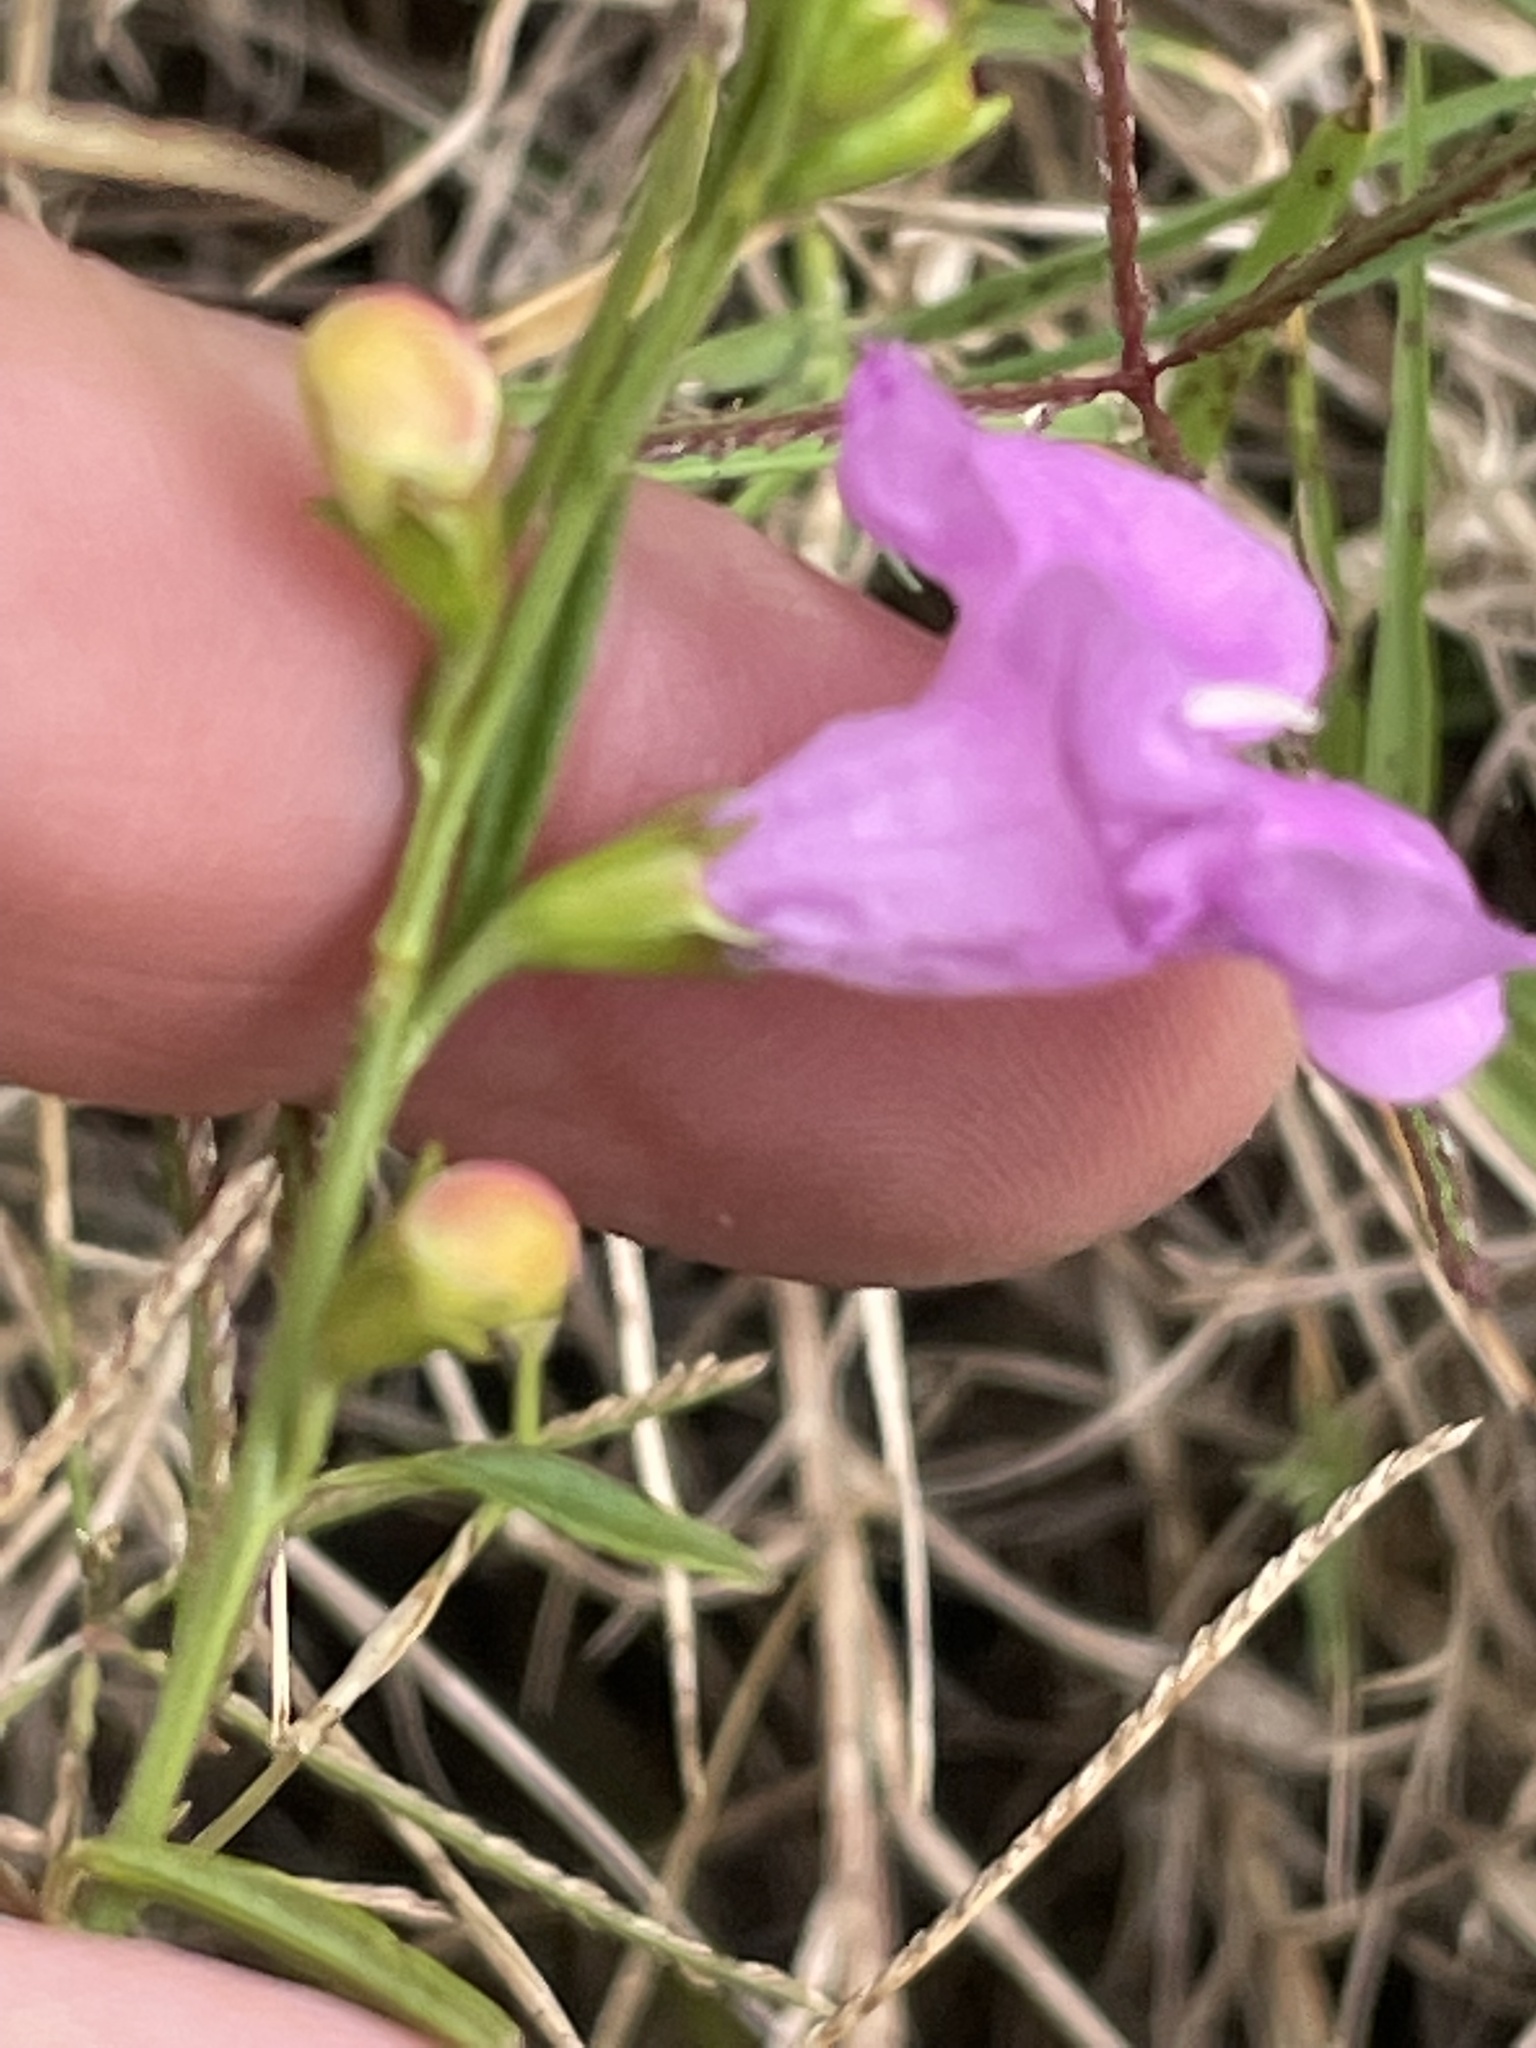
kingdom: Plantae
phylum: Tracheophyta
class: Magnoliopsida
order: Lamiales
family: Orobanchaceae
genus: Agalinis
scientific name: Agalinis fasciculata
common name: Beach false foxglove
